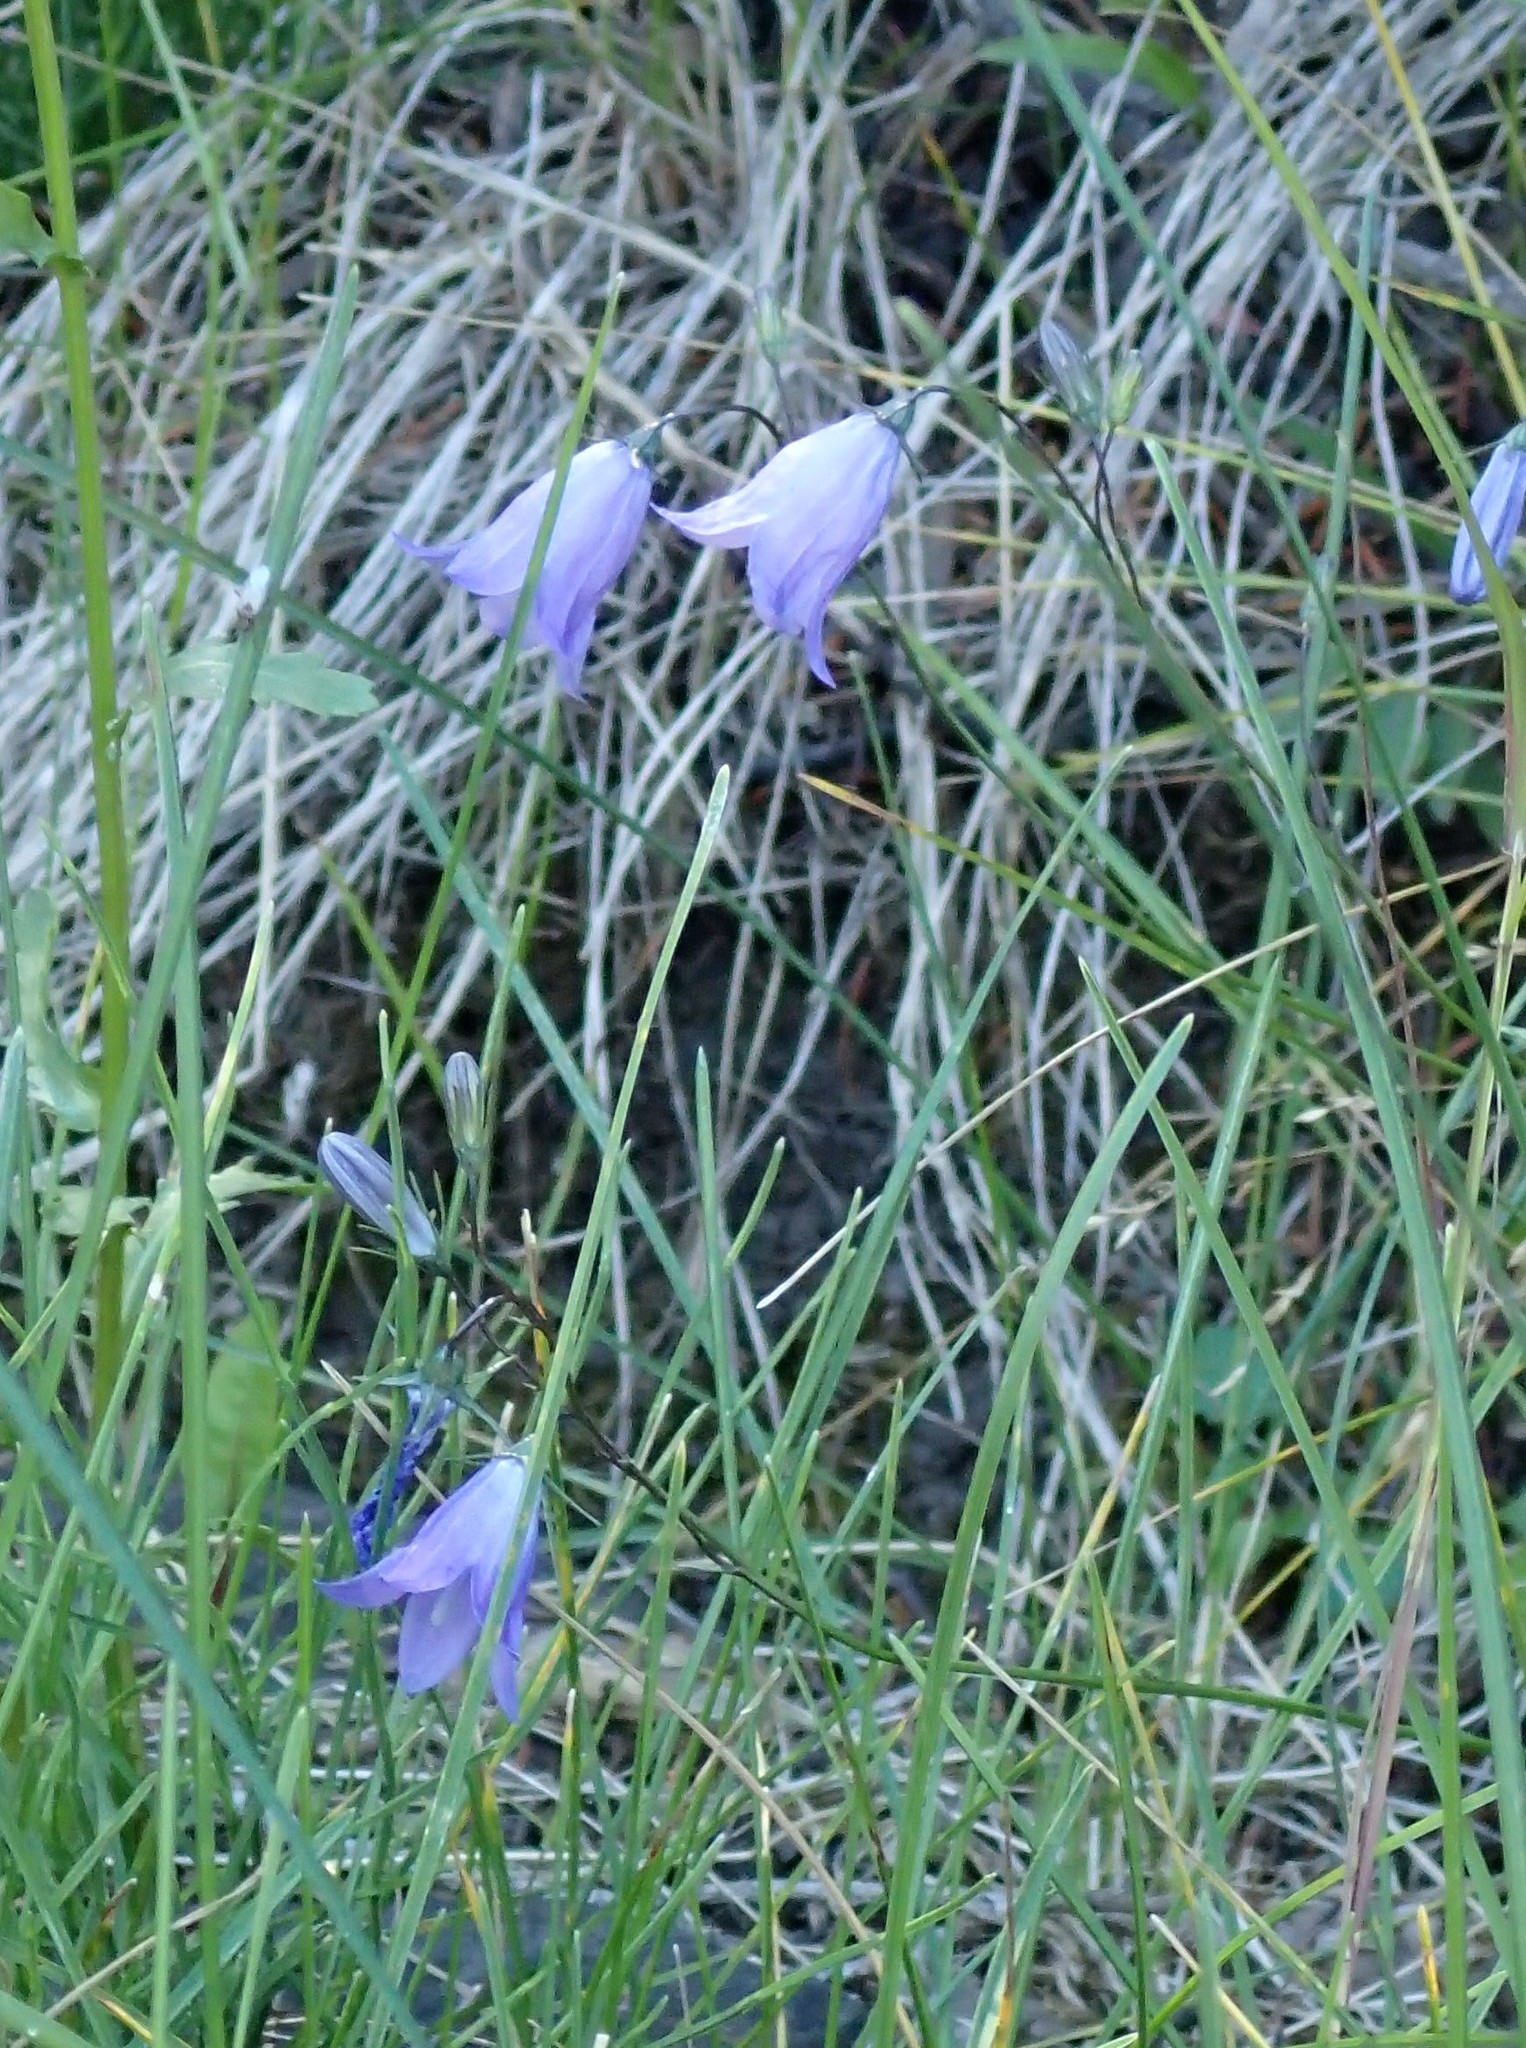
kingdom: Plantae
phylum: Tracheophyta
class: Magnoliopsida
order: Asterales
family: Campanulaceae
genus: Campanula
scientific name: Campanula alaskana
